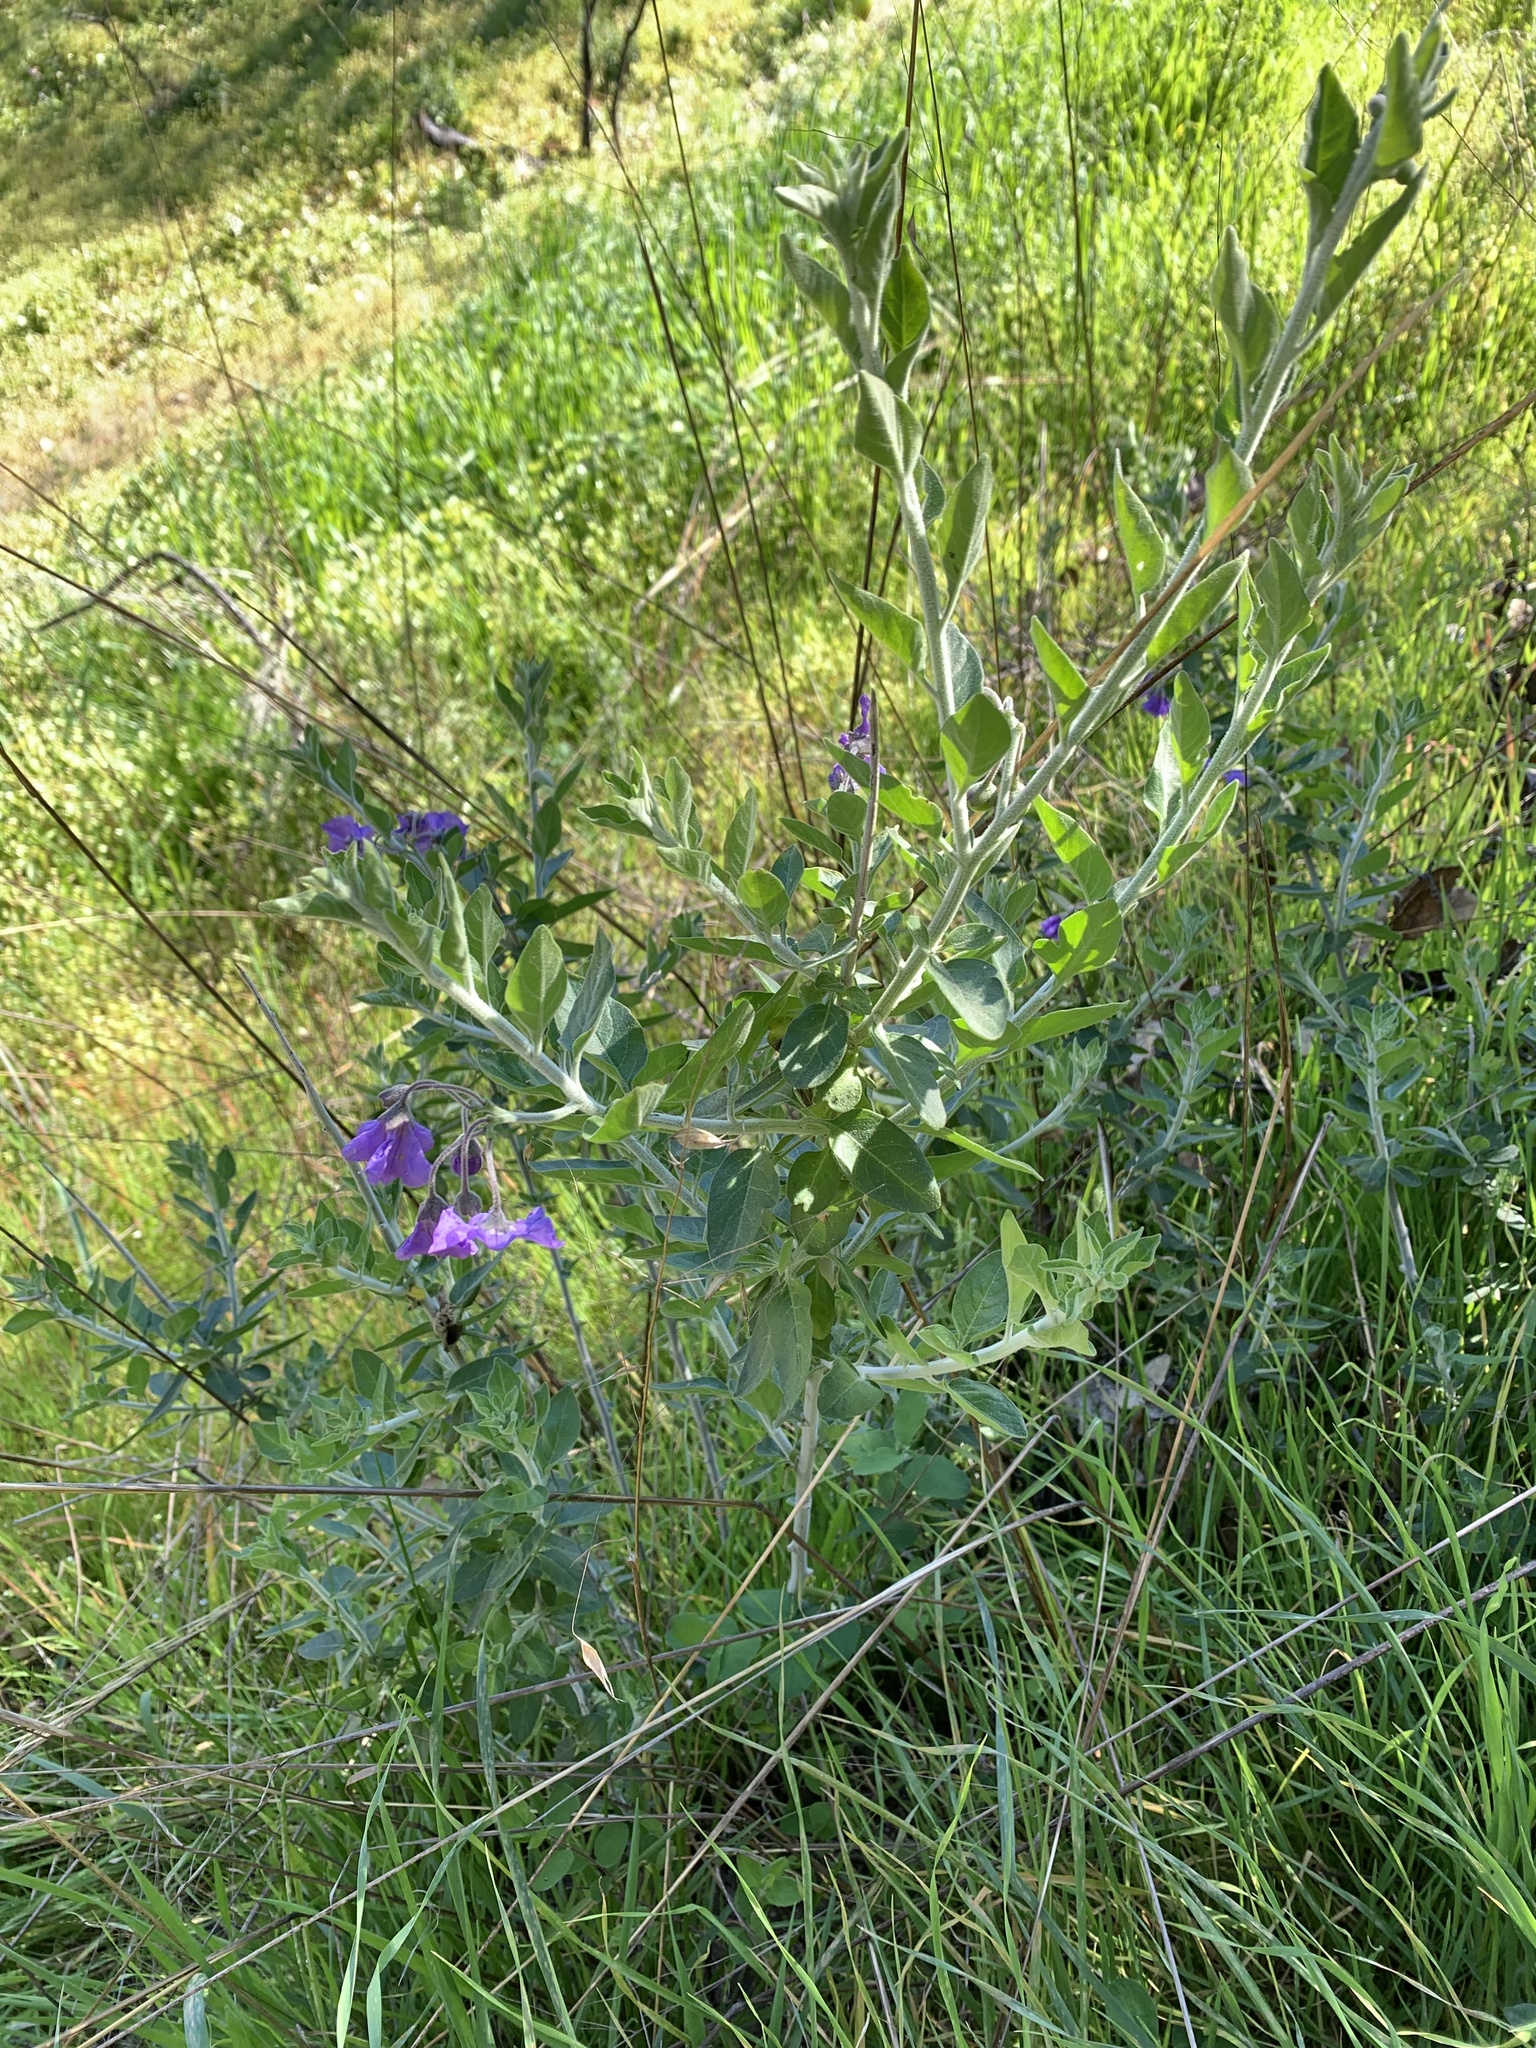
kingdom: Plantae
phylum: Tracheophyta
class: Magnoliopsida
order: Solanales
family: Solanaceae
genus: Solanum
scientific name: Solanum umbelliferum
